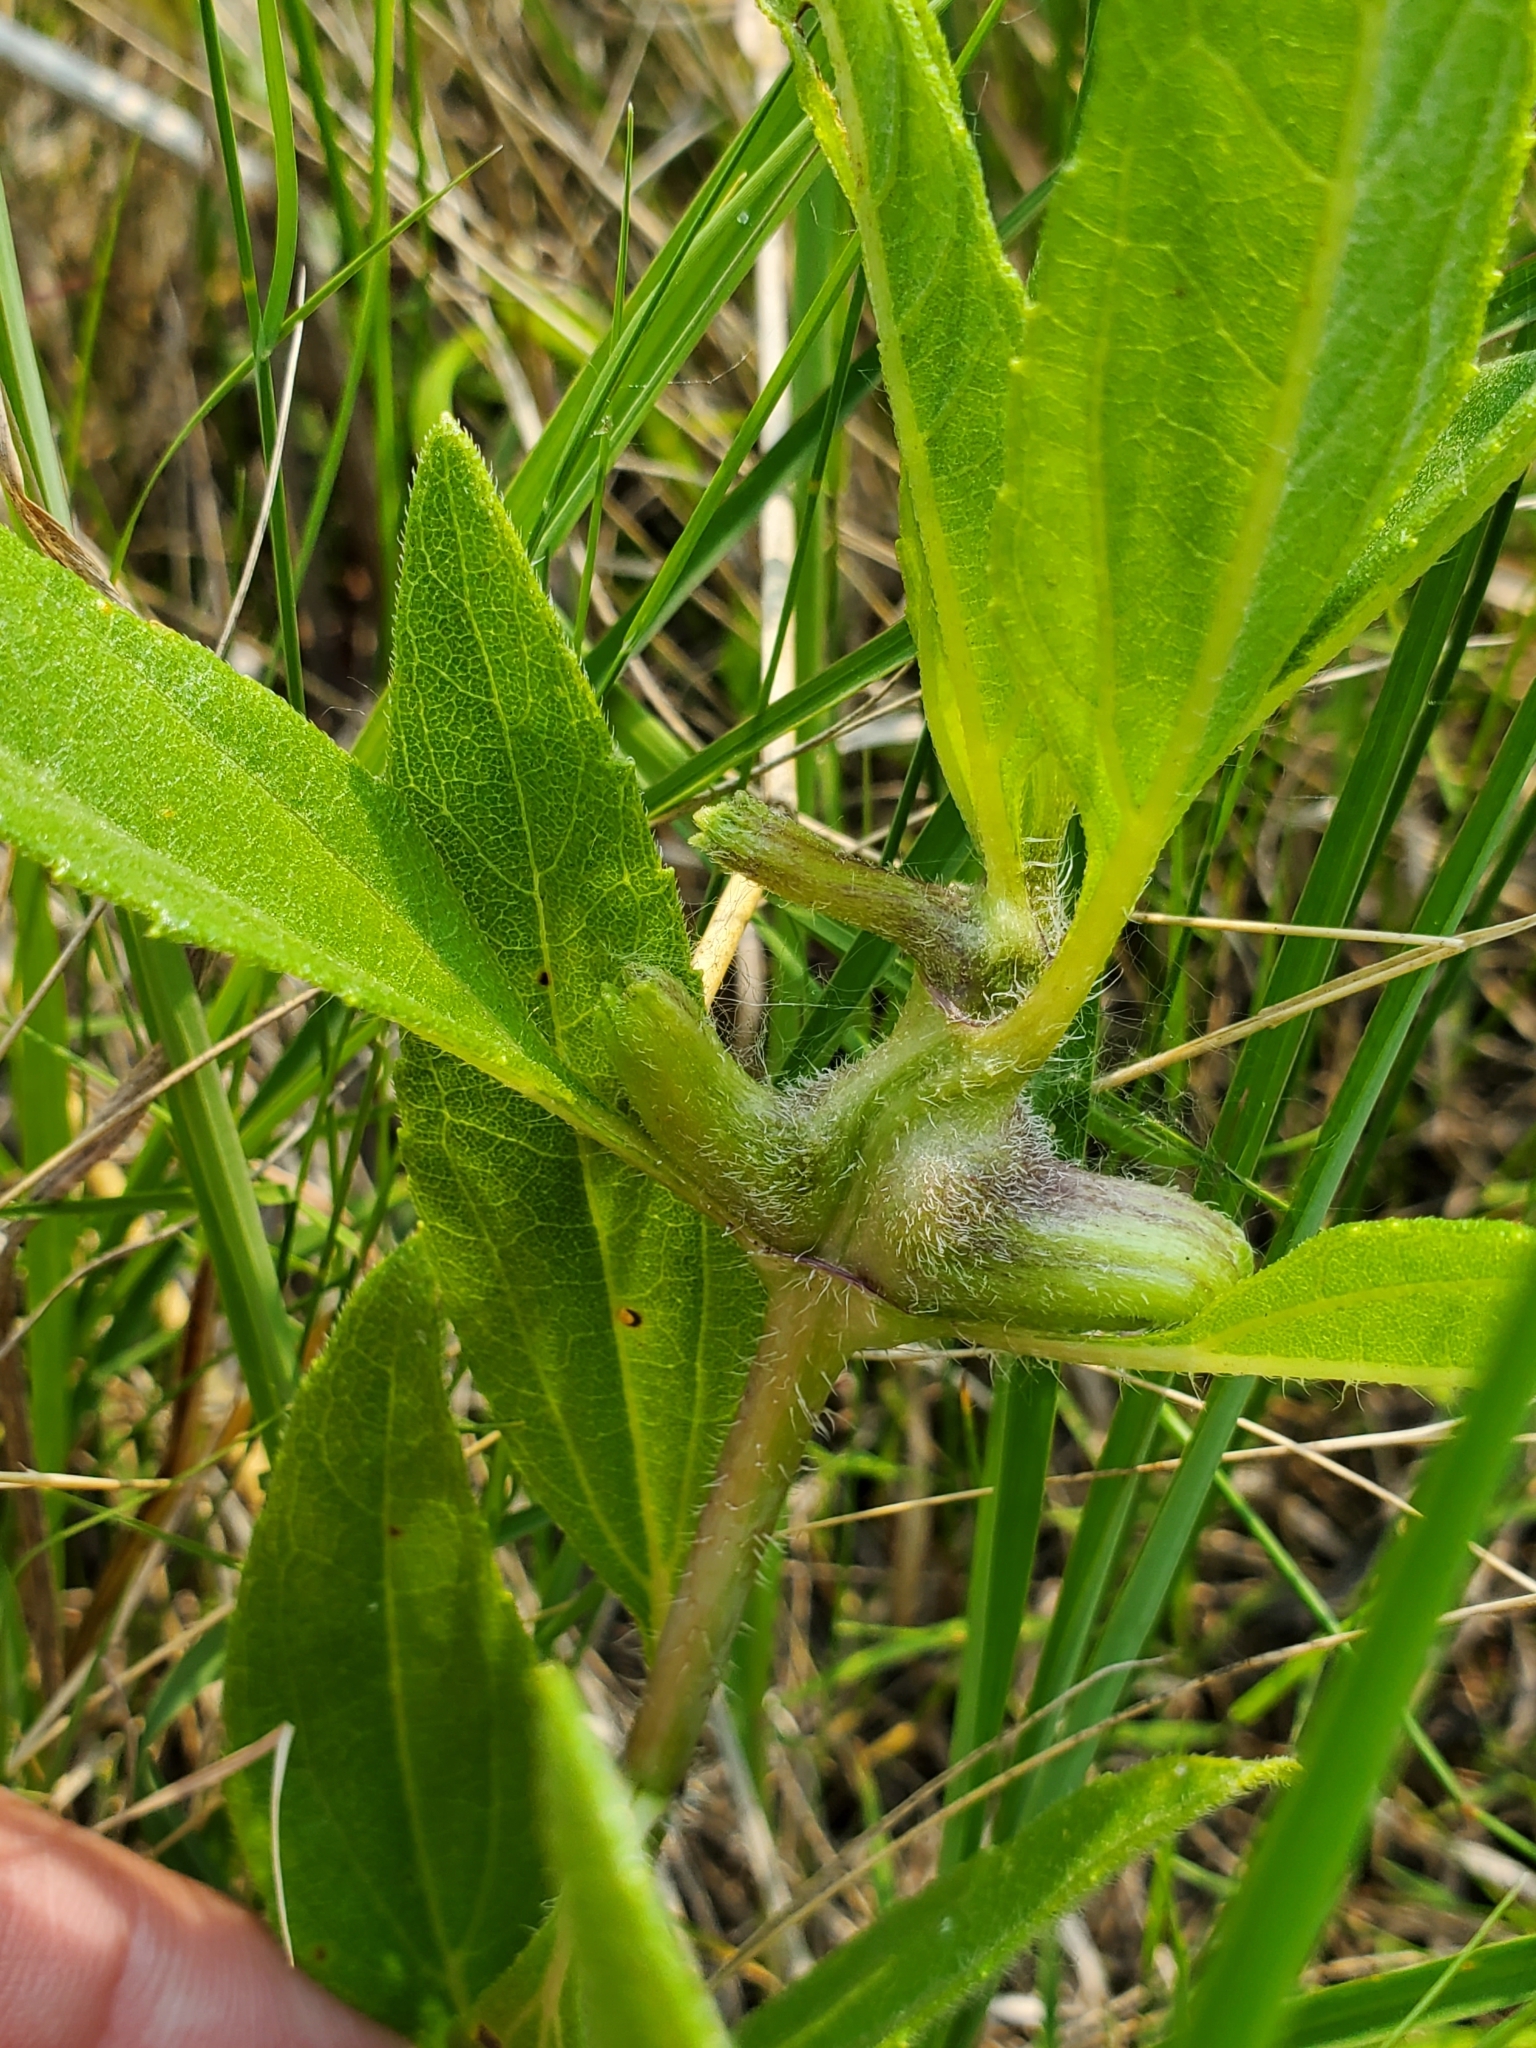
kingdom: Animalia
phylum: Arthropoda
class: Insecta
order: Diptera
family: Cecidomyiidae
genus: Olpodiplosis
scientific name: Olpodiplosis helianthi
